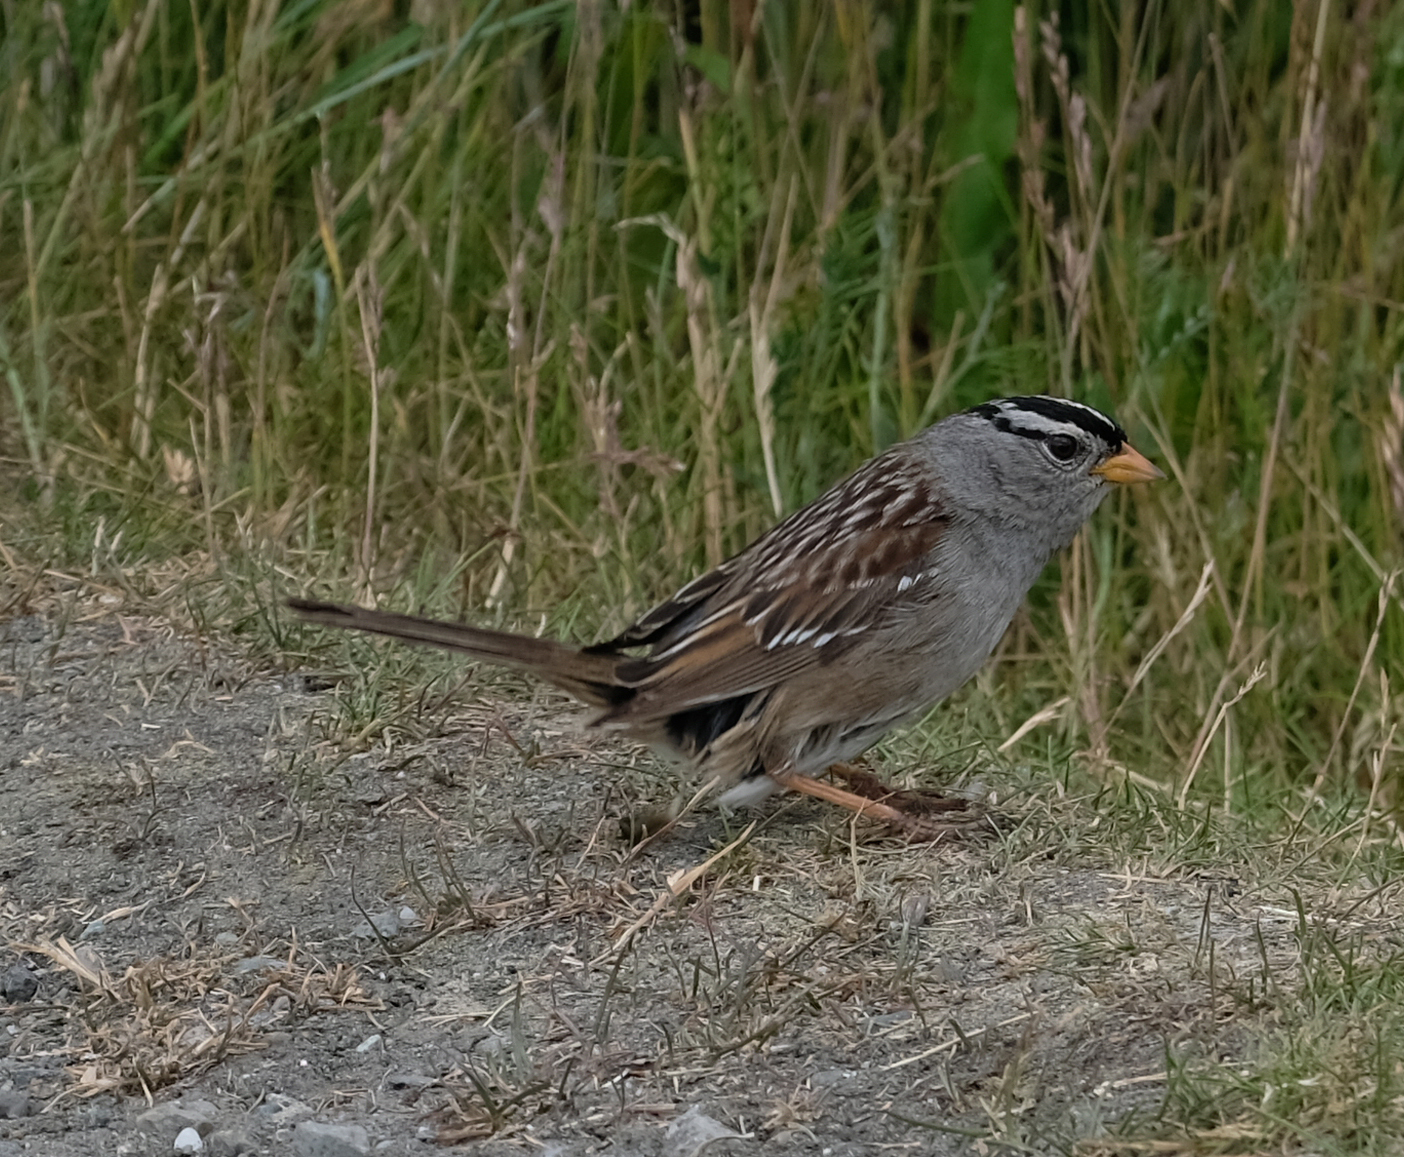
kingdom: Animalia
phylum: Chordata
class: Aves
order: Passeriformes
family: Passerellidae
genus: Zonotrichia
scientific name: Zonotrichia leucophrys
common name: White-crowned sparrow
